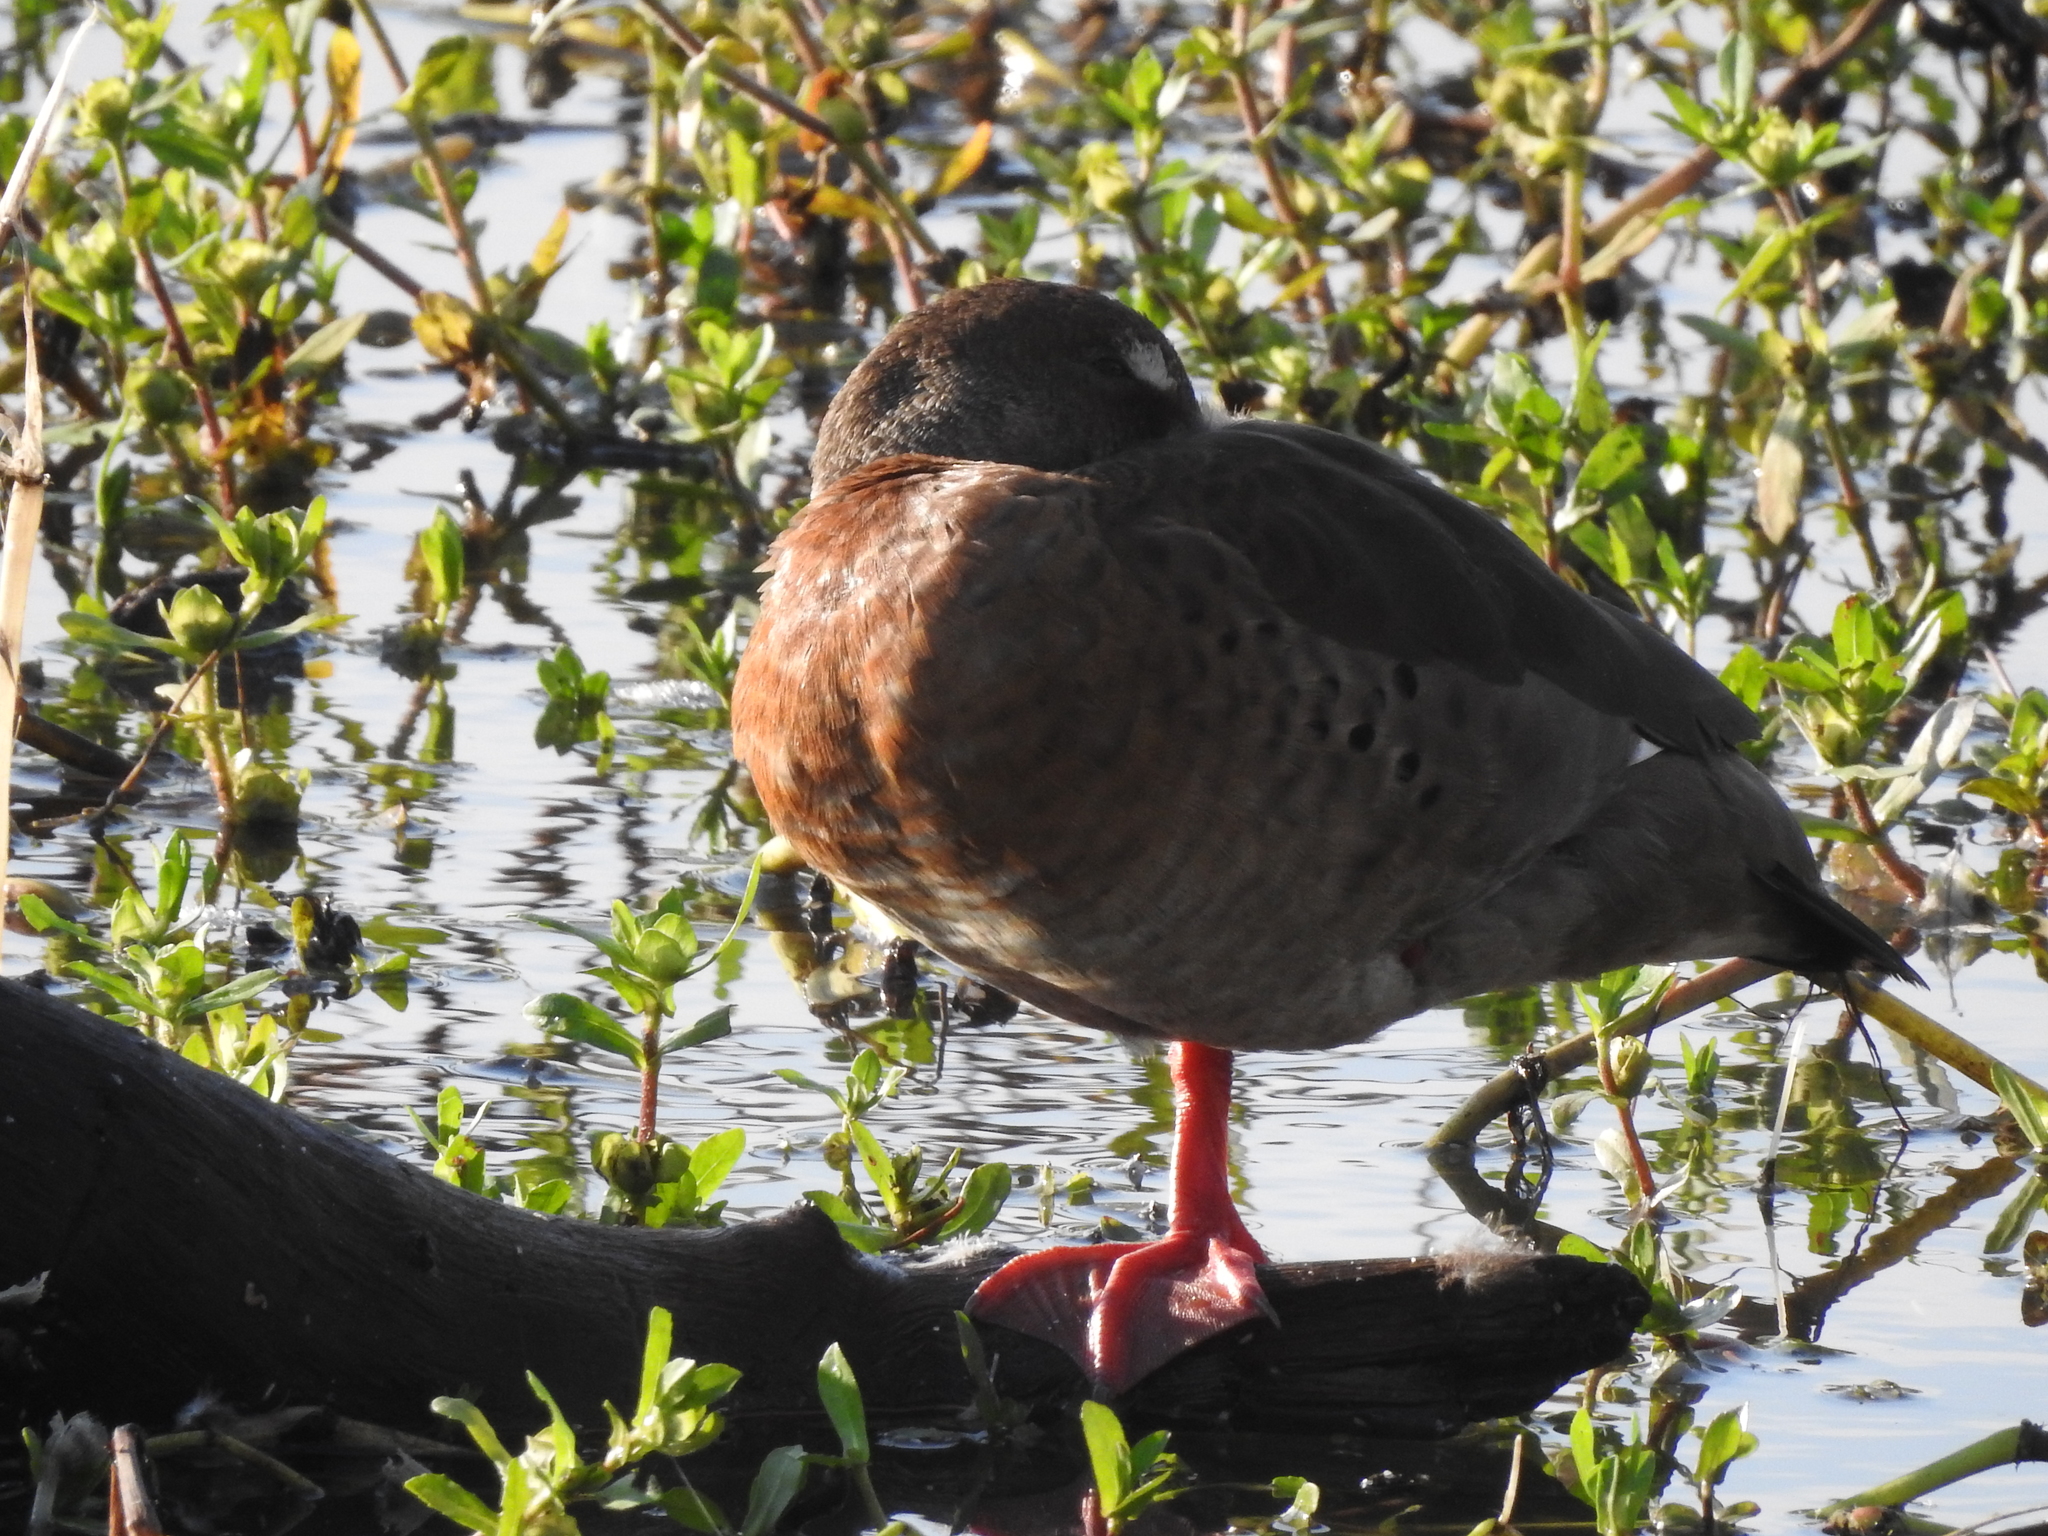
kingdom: Animalia
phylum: Chordata
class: Aves
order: Anseriformes
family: Anatidae
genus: Amazonetta
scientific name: Amazonetta brasiliensis
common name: Brazilian teal
